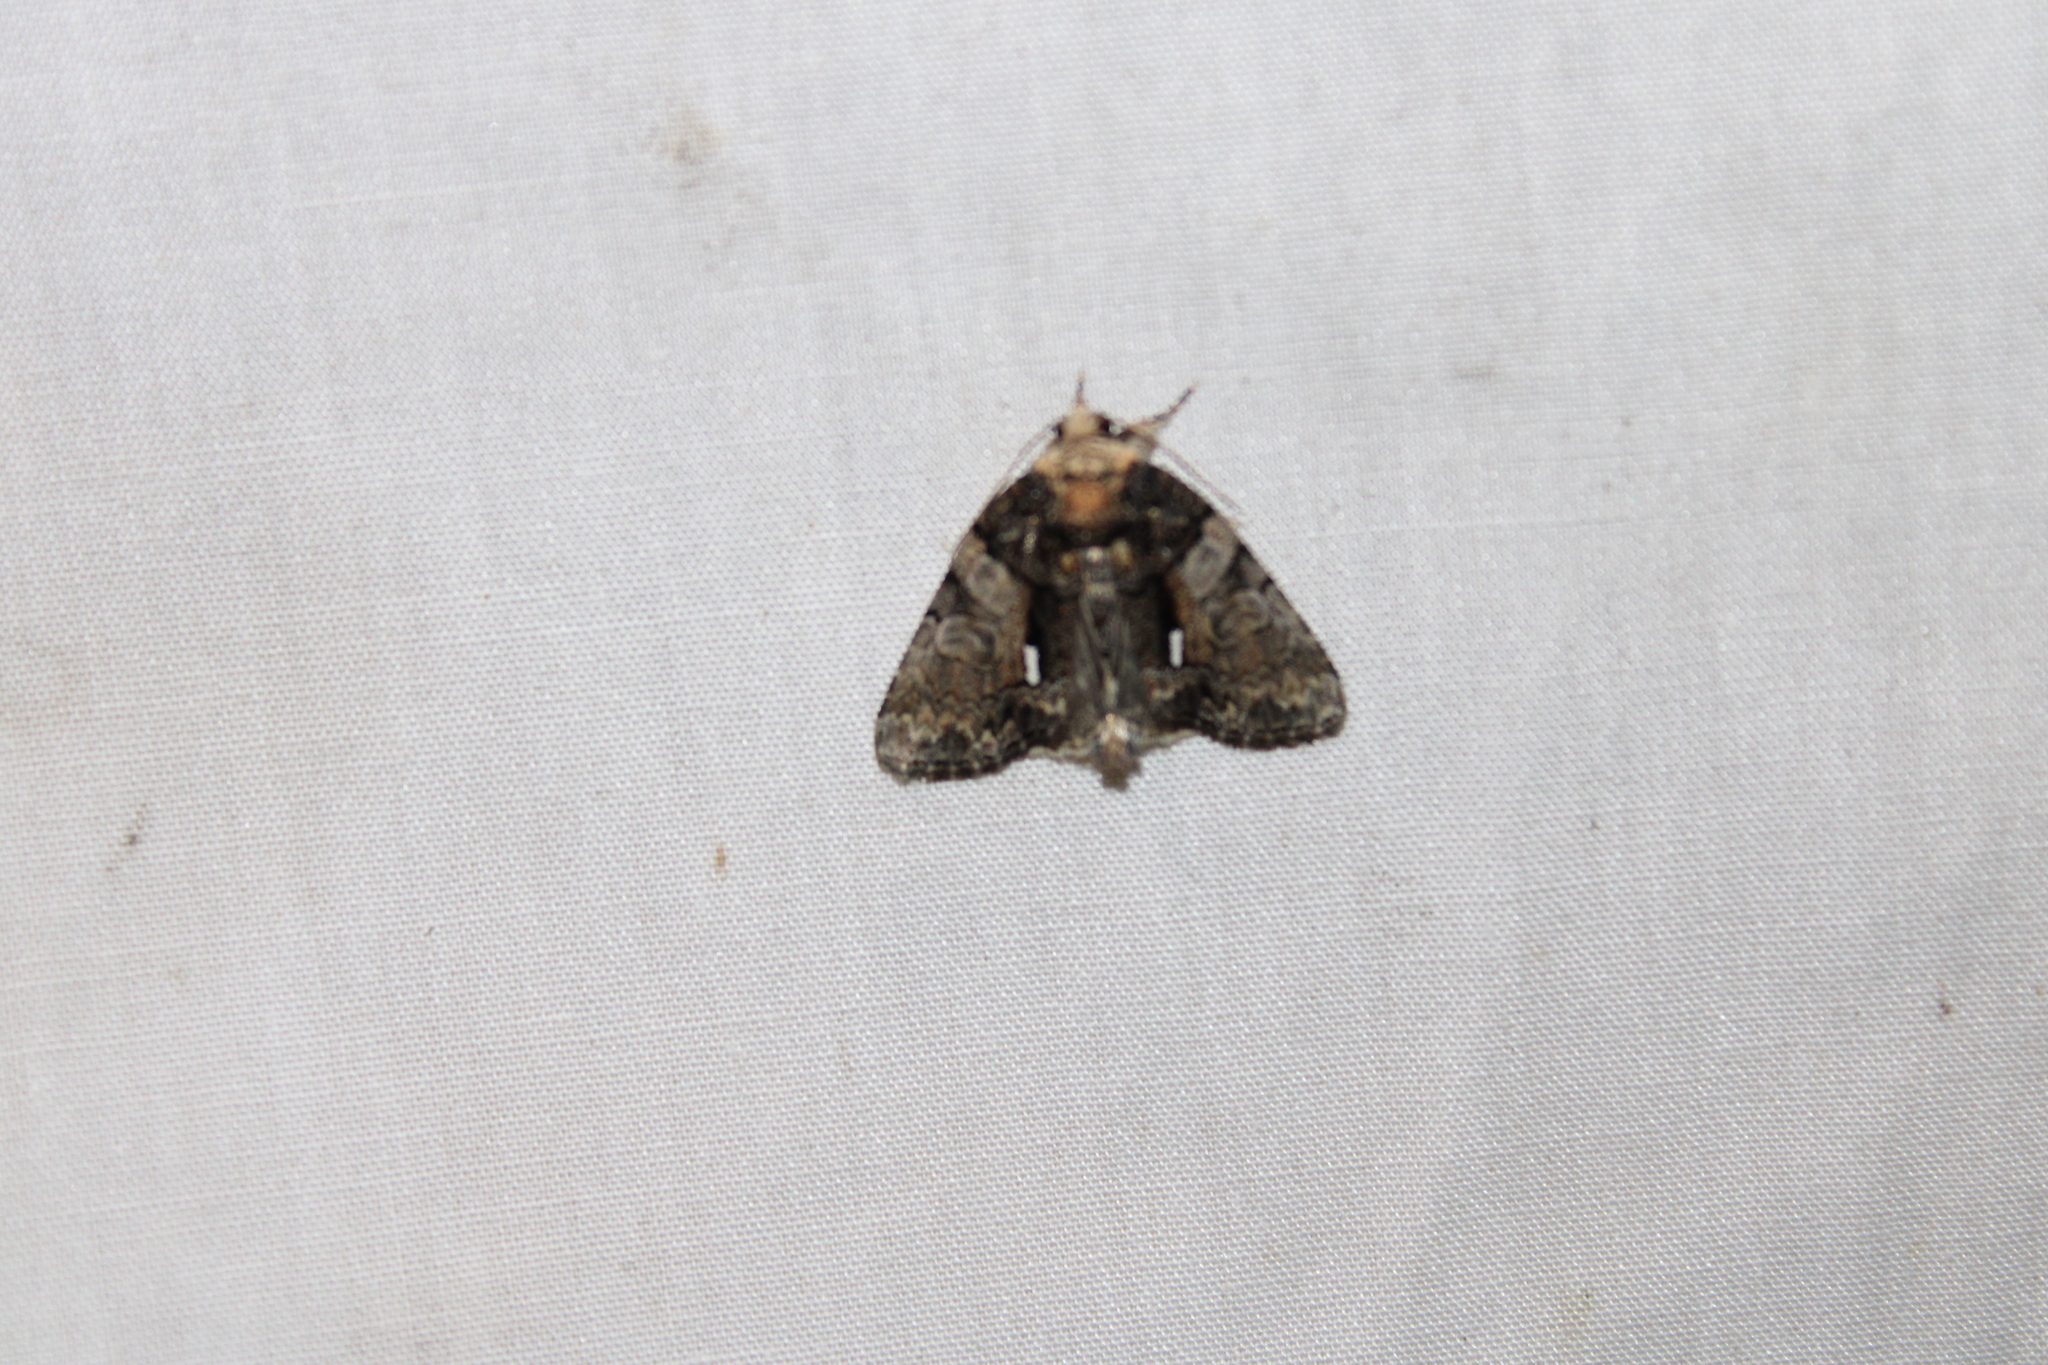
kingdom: Animalia
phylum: Arthropoda
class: Insecta
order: Lepidoptera
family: Noctuidae
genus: Chytonix
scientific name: Chytonix palliatricula
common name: Cloaked marvel
